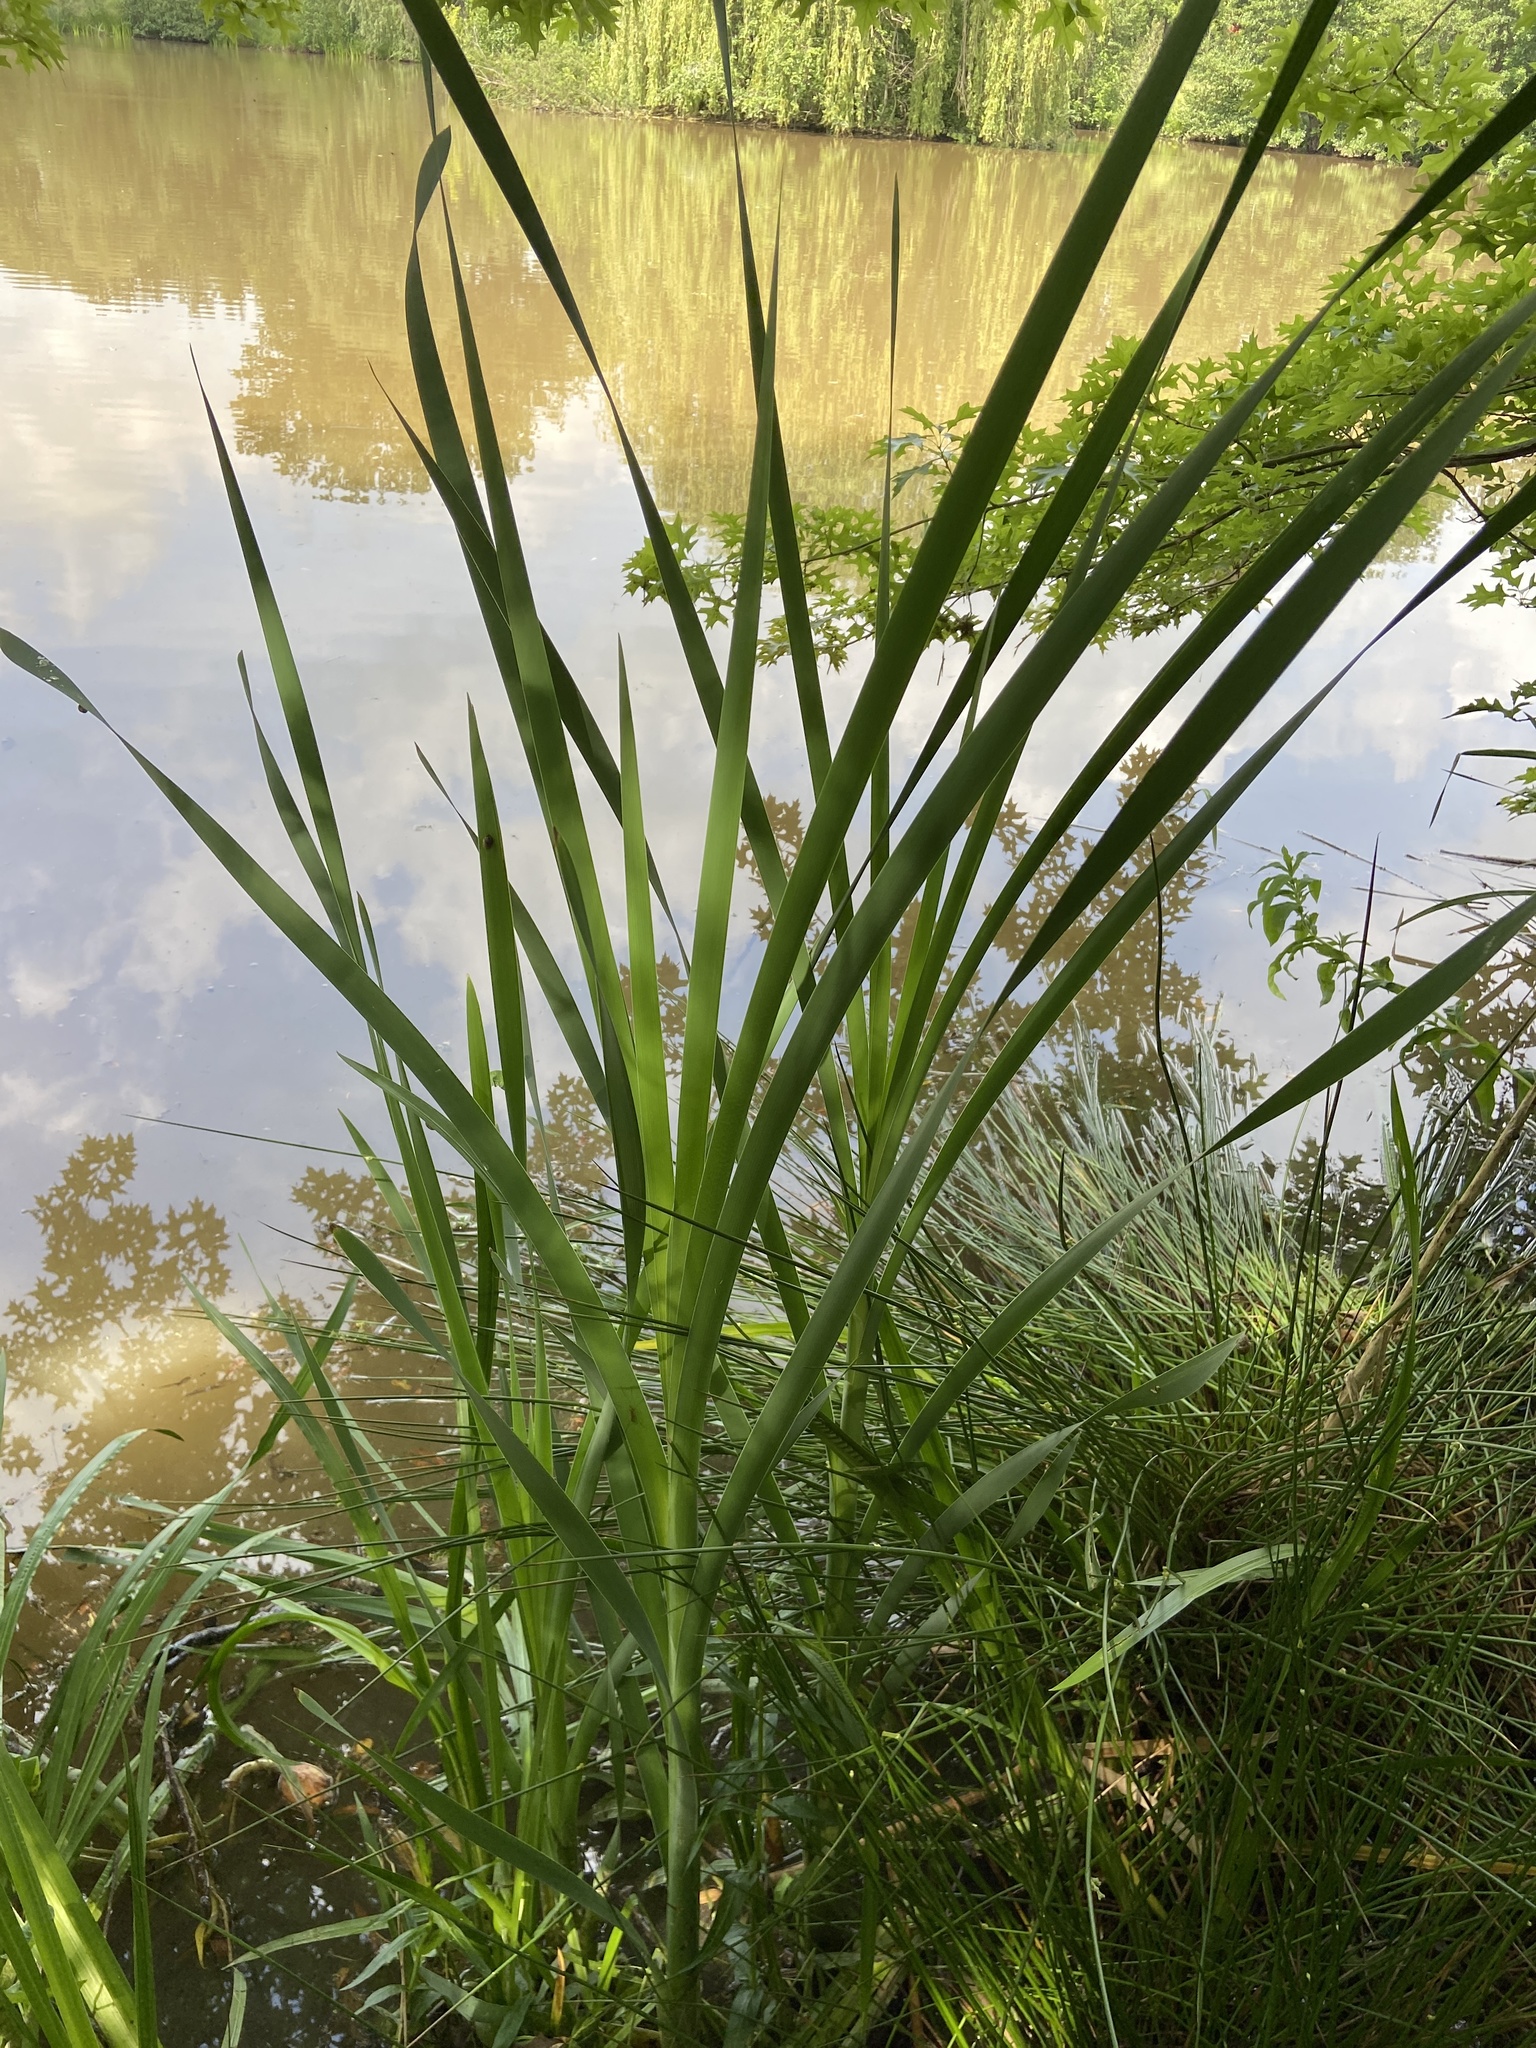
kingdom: Plantae
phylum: Tracheophyta
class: Liliopsida
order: Poales
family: Typhaceae
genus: Typha
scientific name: Typha latifolia
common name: Broadleaf cattail
